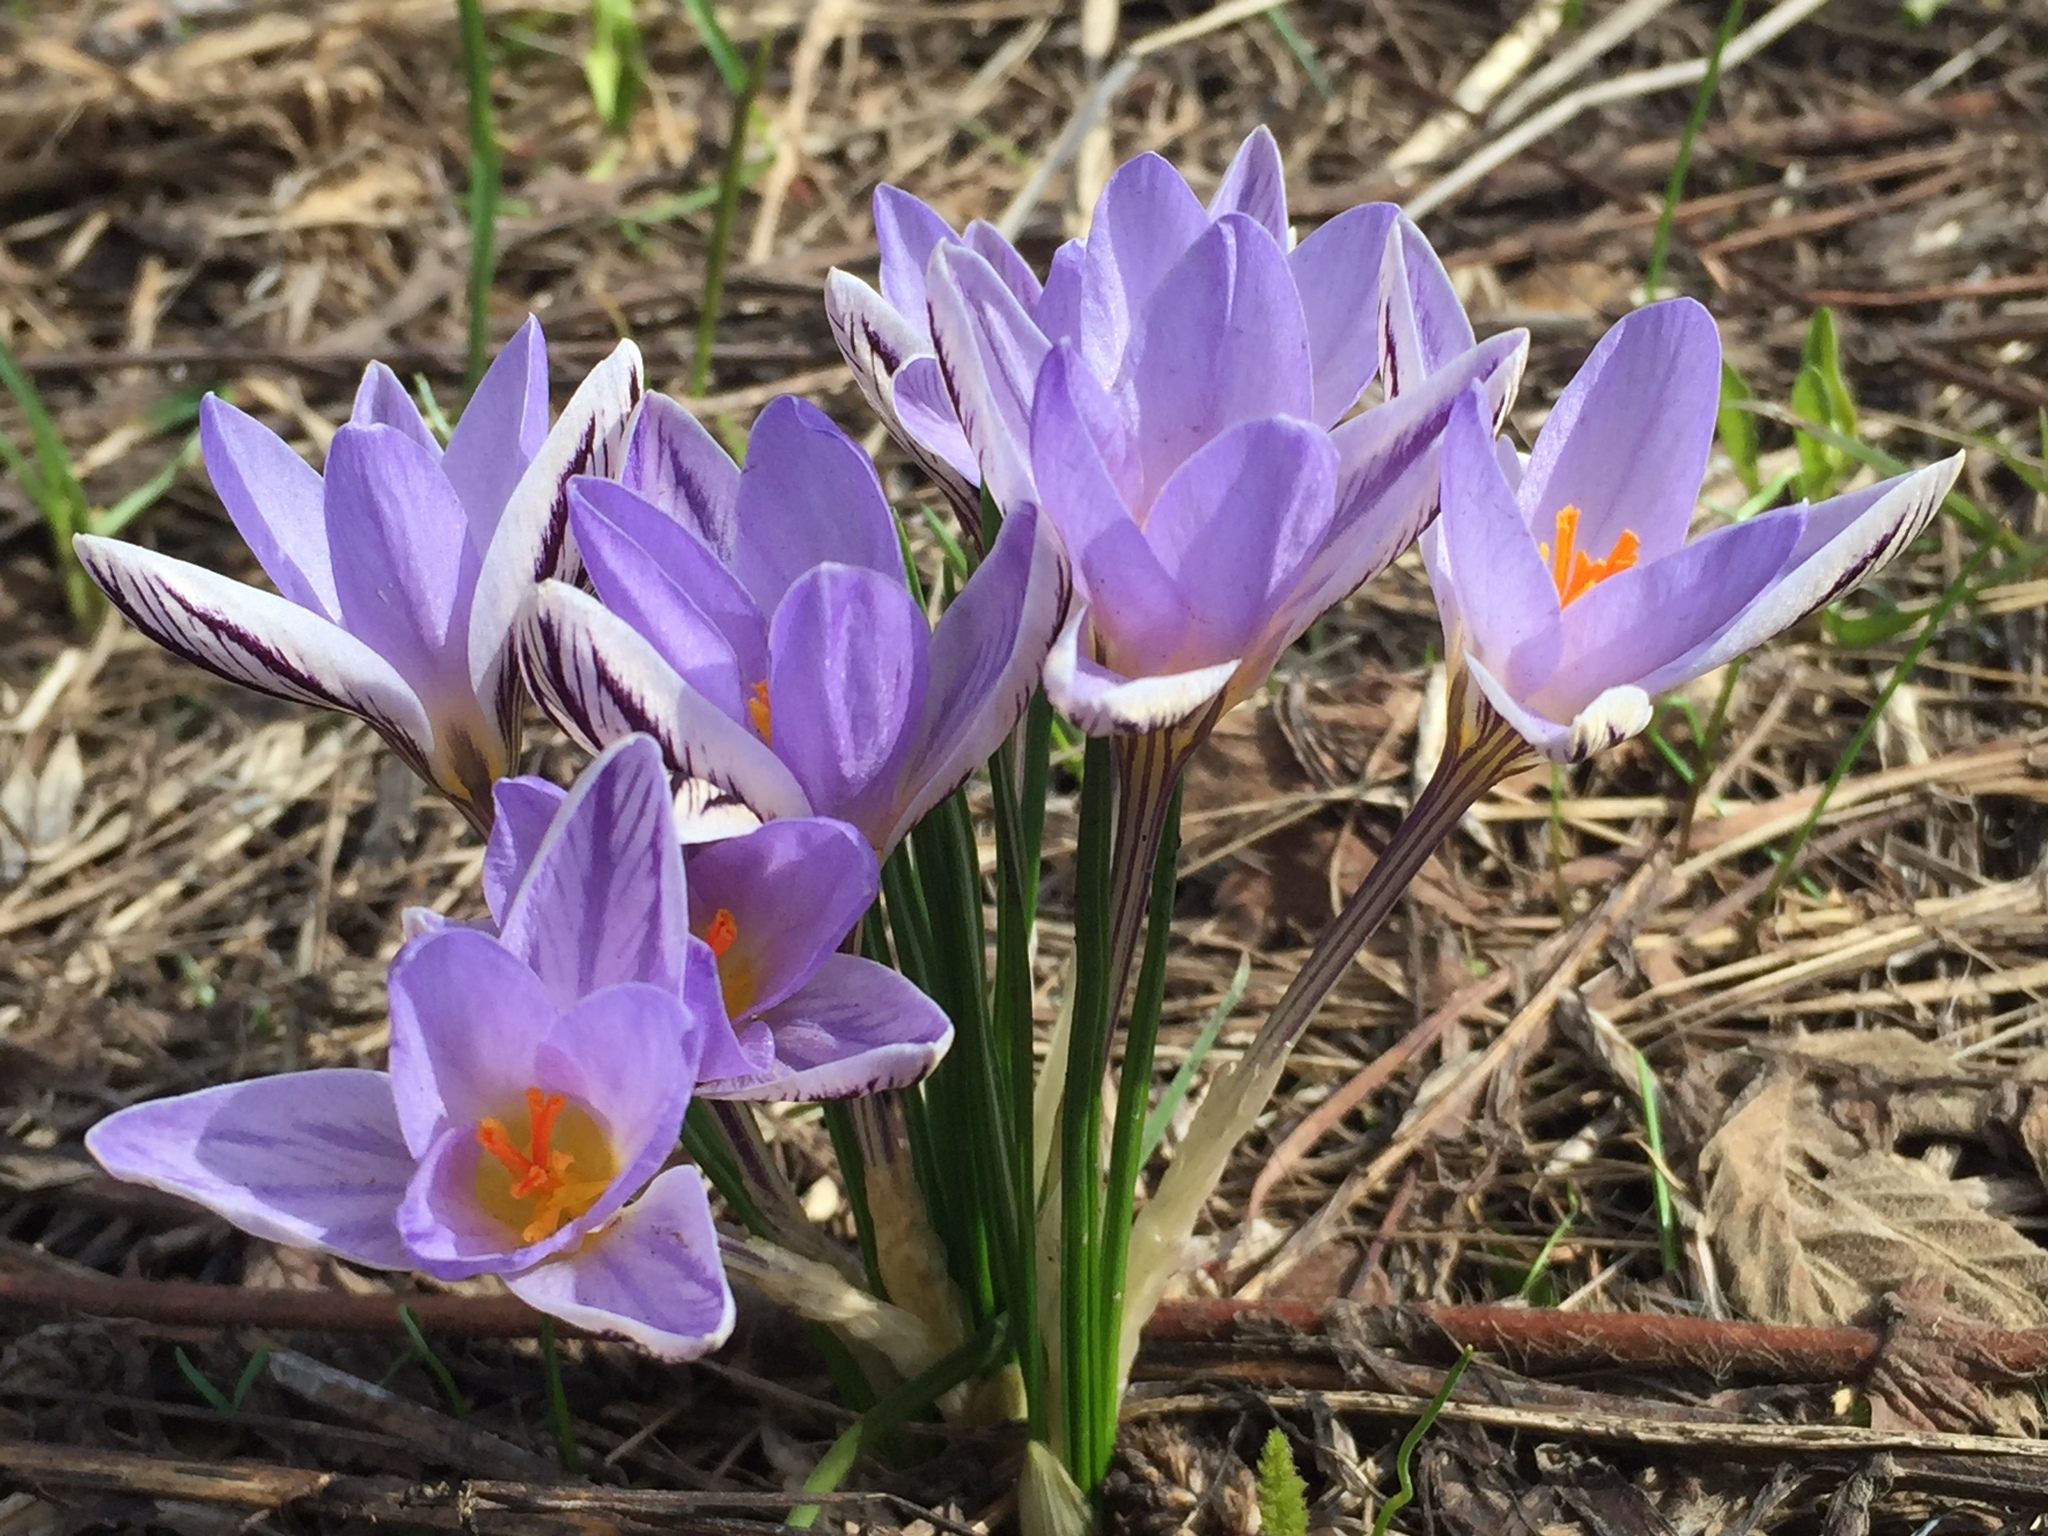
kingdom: Plantae
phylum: Tracheophyta
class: Liliopsida
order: Asparagales
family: Iridaceae
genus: Crocus
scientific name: Crocus reticulatus
